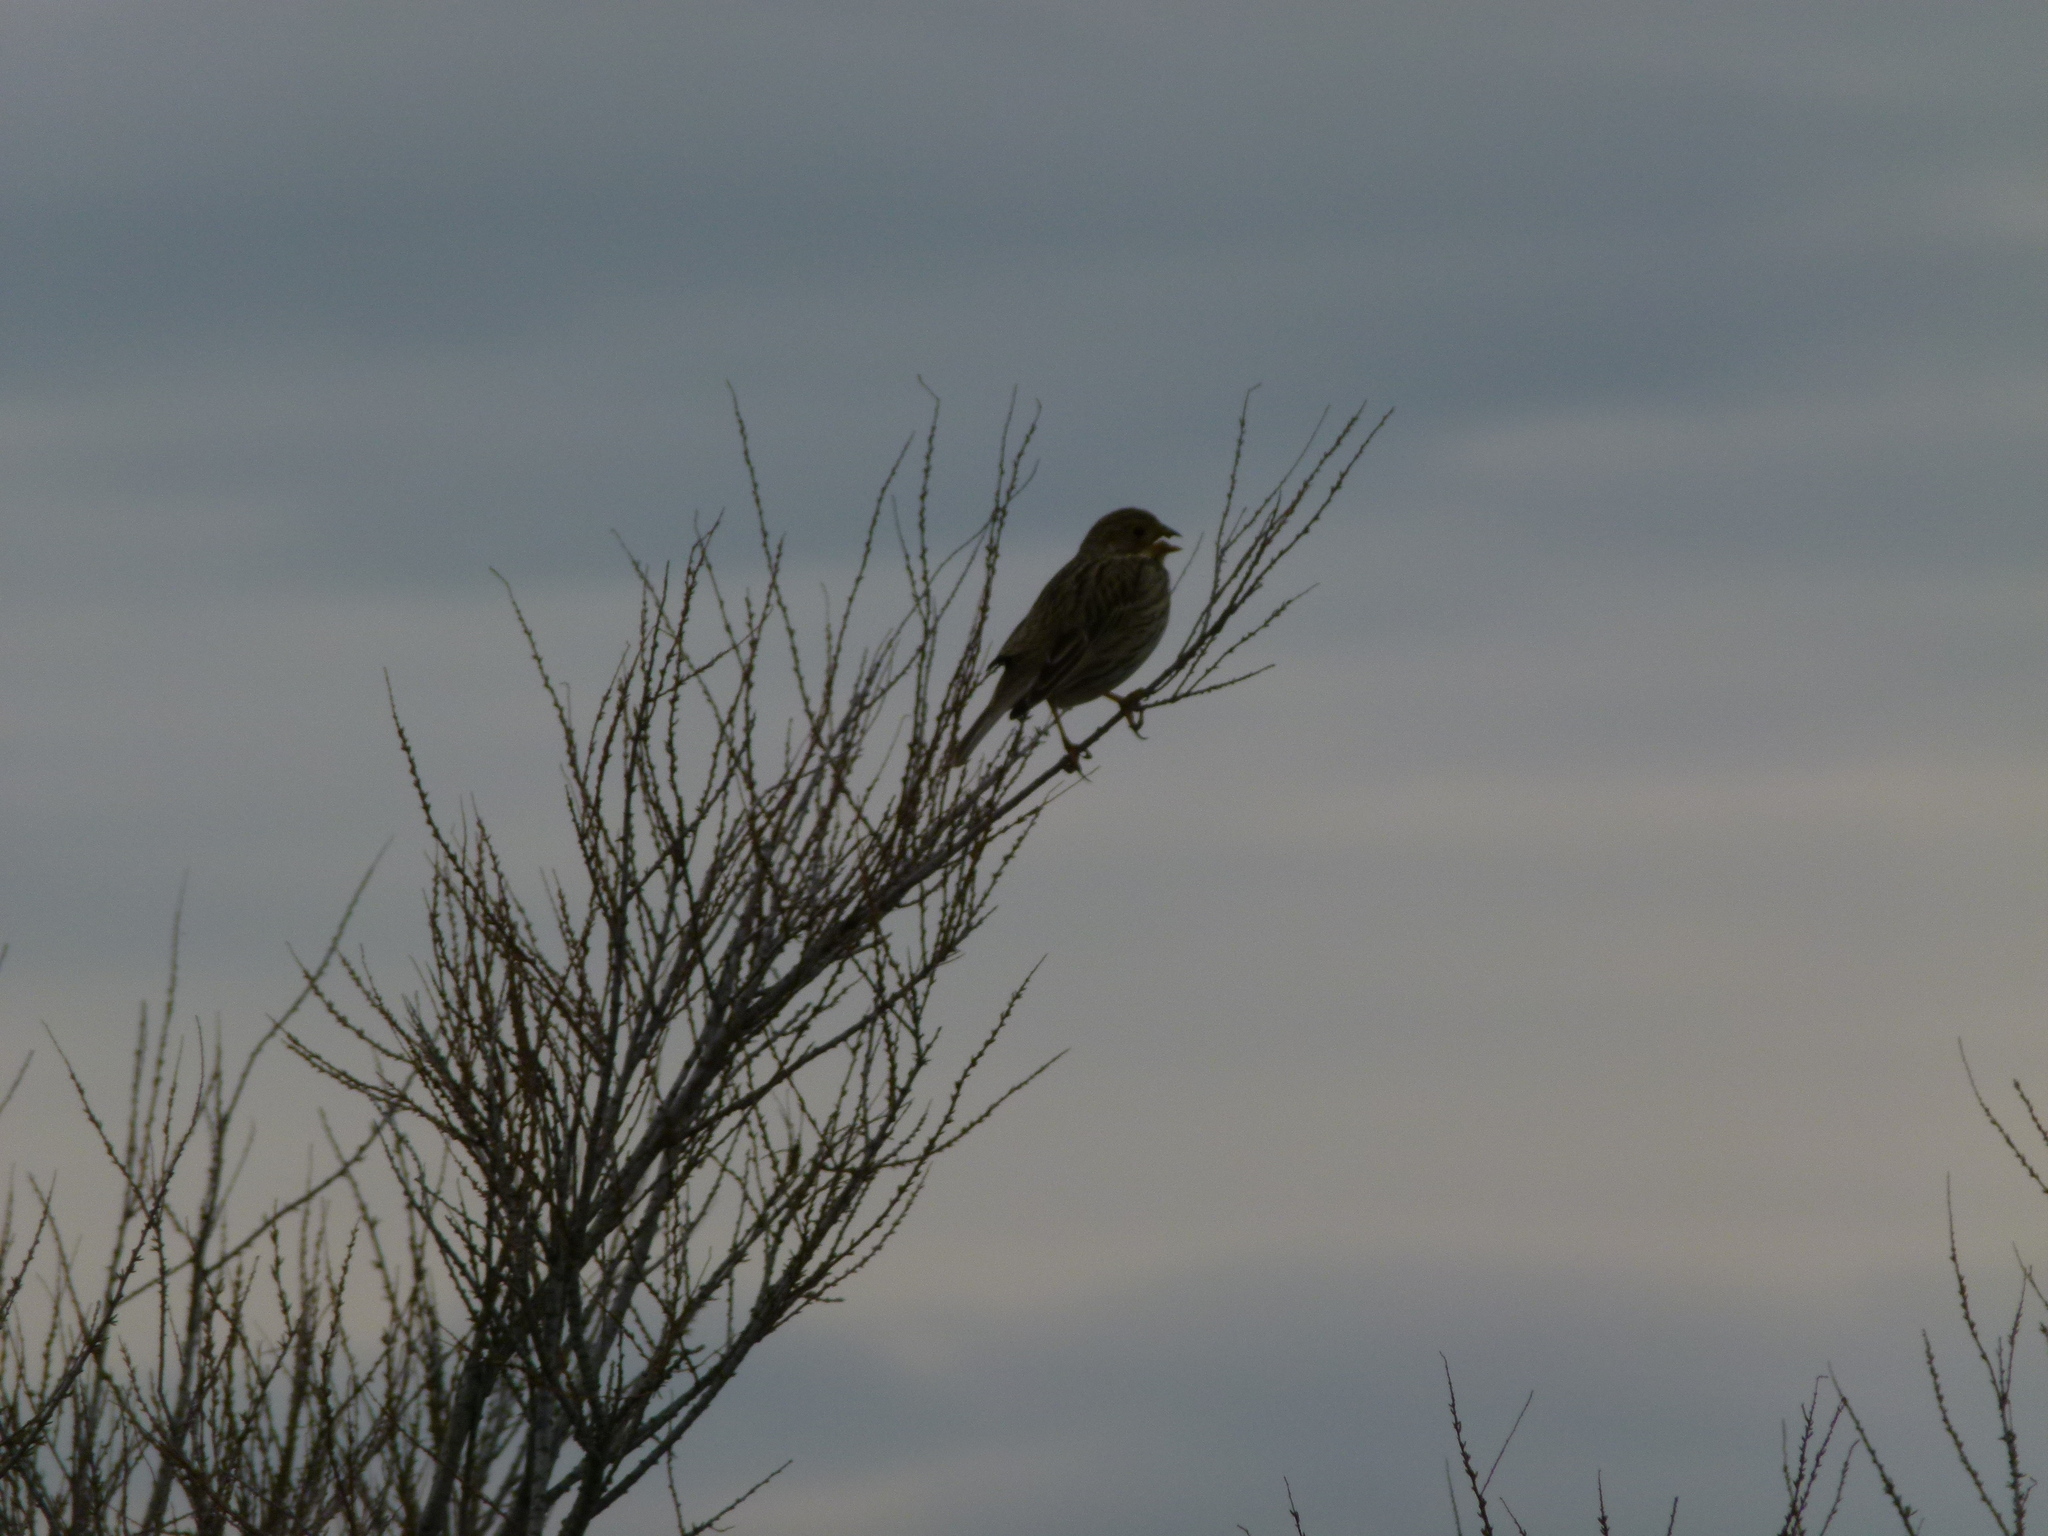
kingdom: Animalia
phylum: Chordata
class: Aves
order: Passeriformes
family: Emberizidae
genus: Emberiza
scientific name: Emberiza calandra
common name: Corn bunting
